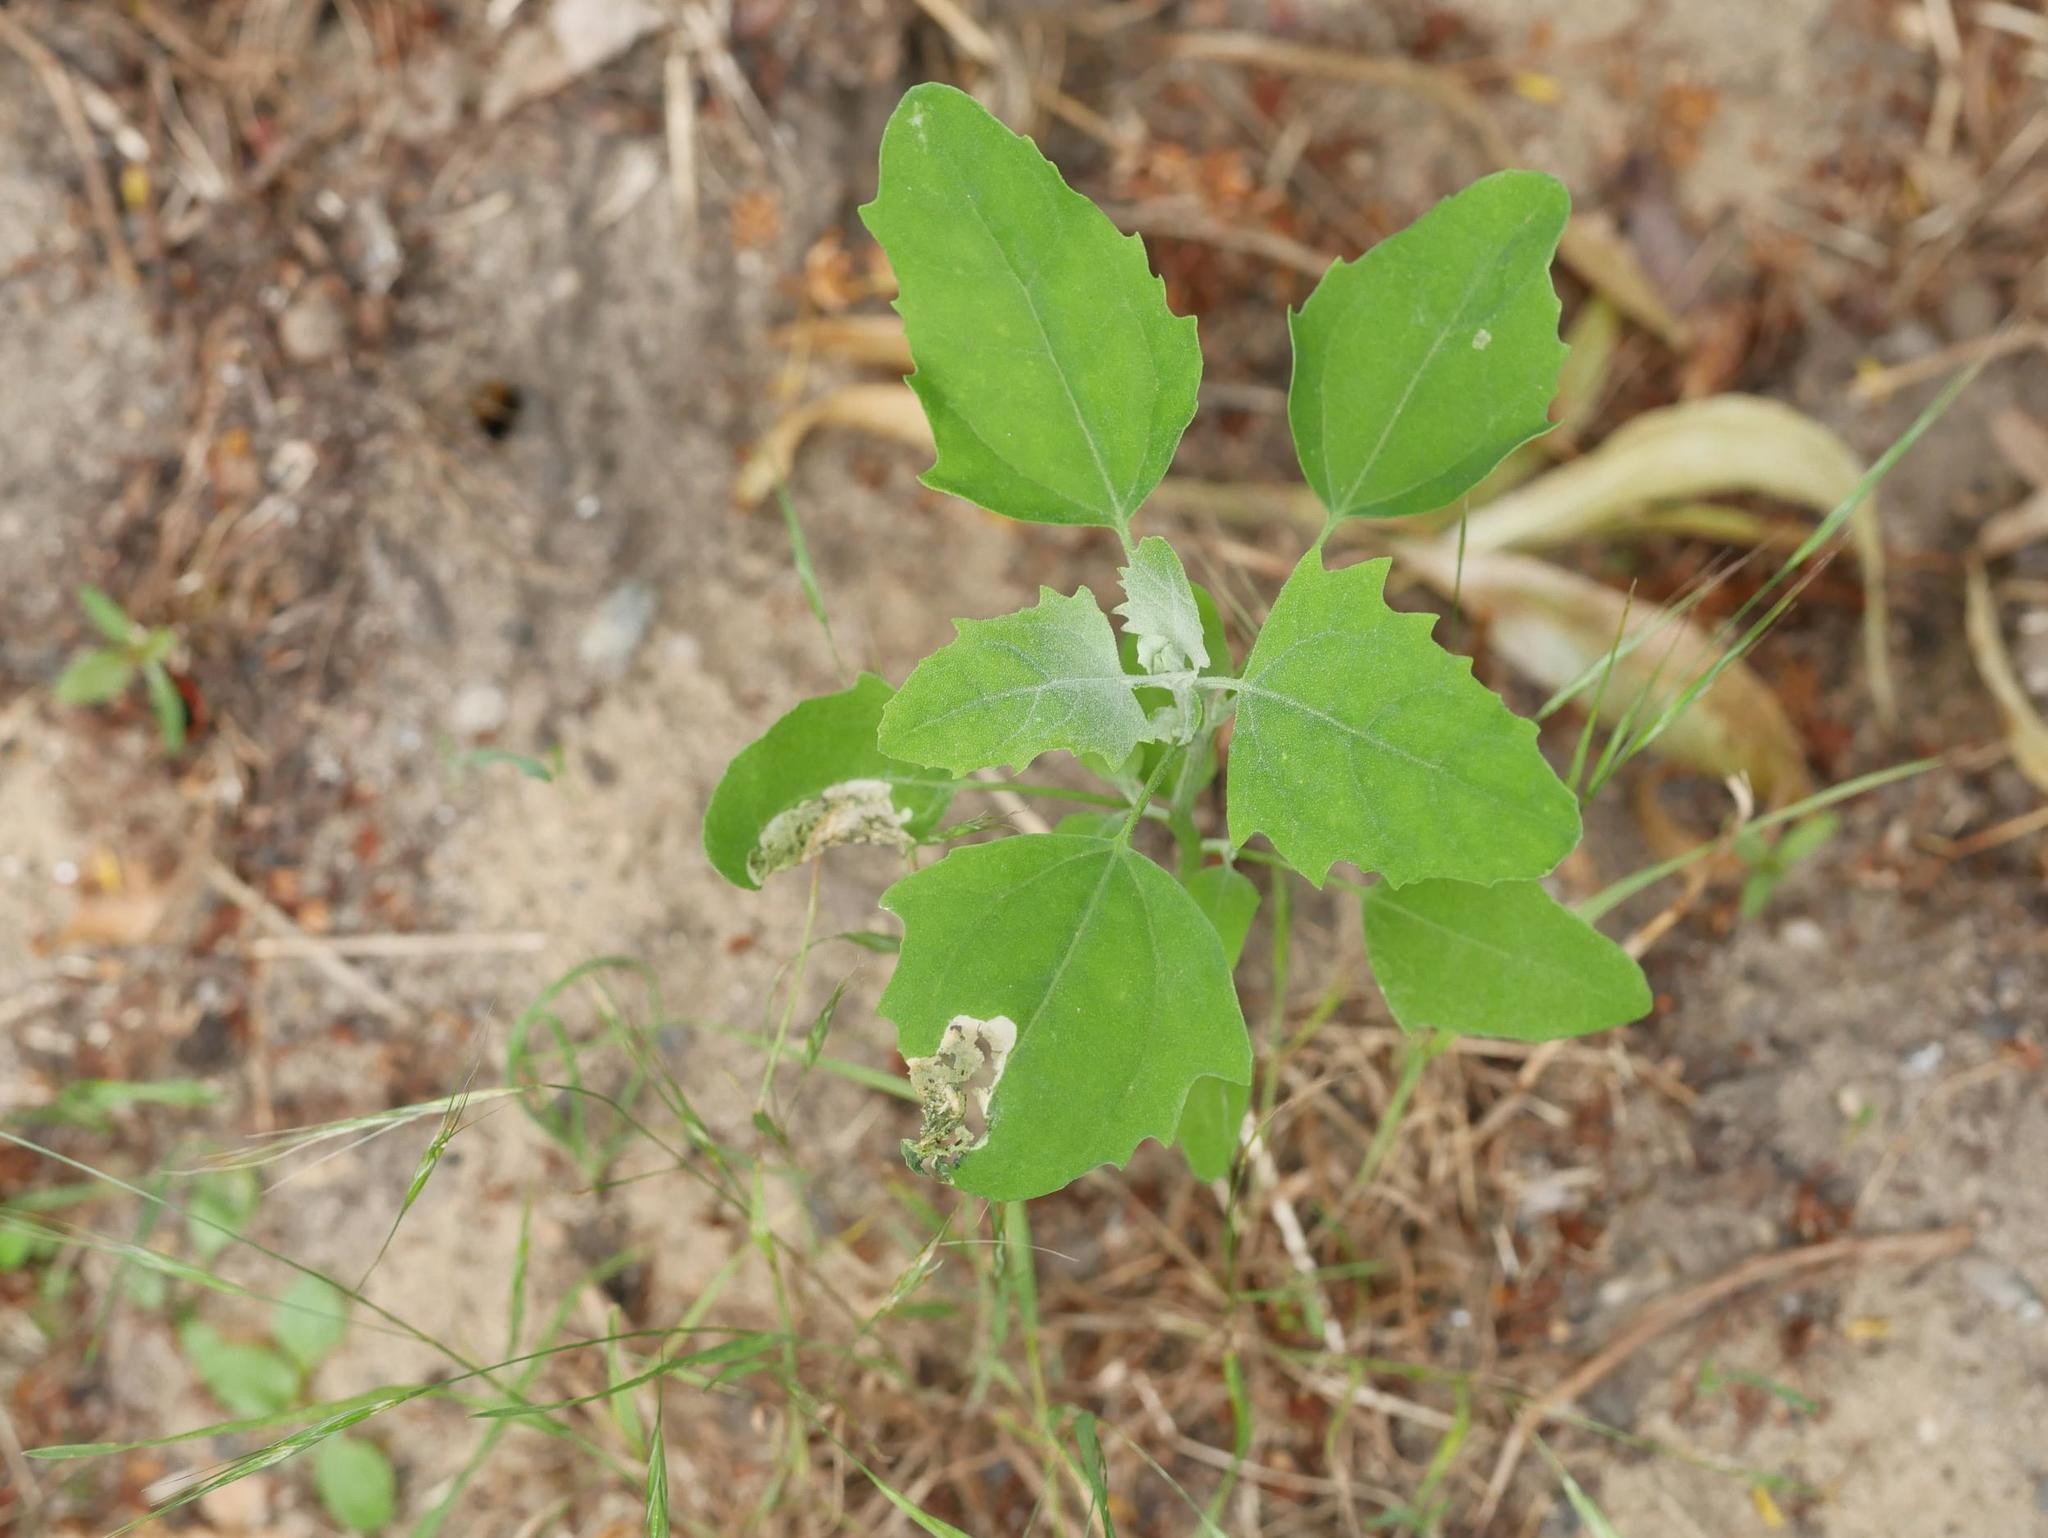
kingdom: Plantae
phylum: Tracheophyta
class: Magnoliopsida
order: Caryophyllales
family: Amaranthaceae
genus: Chenopodium
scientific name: Chenopodium album
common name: Fat-hen
